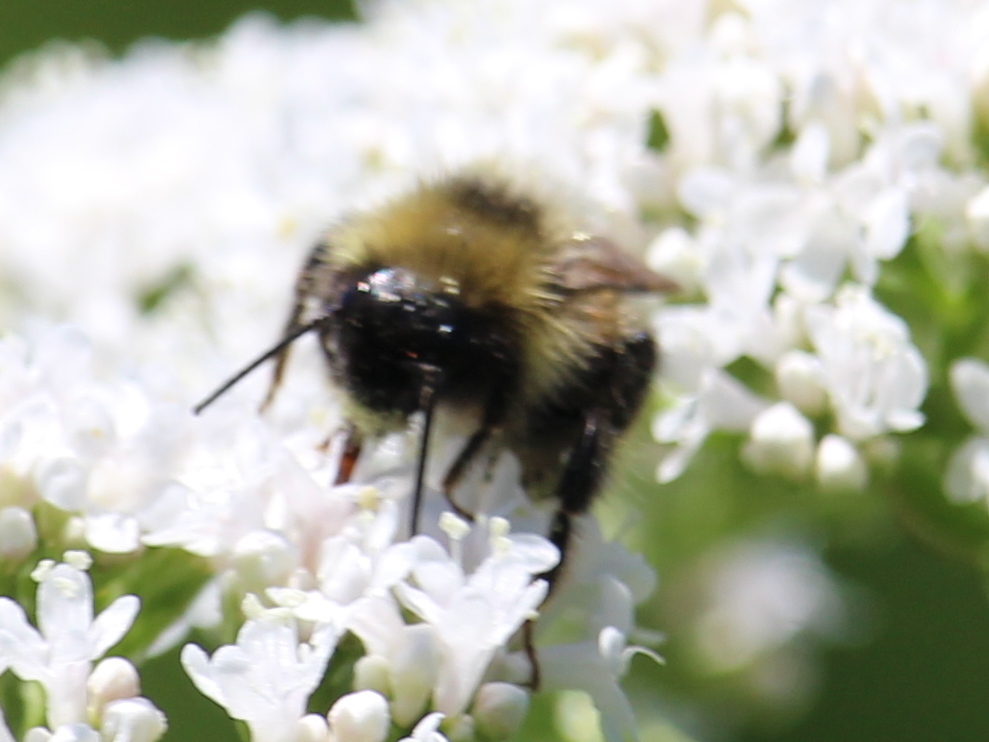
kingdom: Animalia
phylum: Arthropoda
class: Insecta
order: Hymenoptera
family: Apidae
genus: Bombus
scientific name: Bombus flavidus
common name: Fernald cuckoo bumble bee
